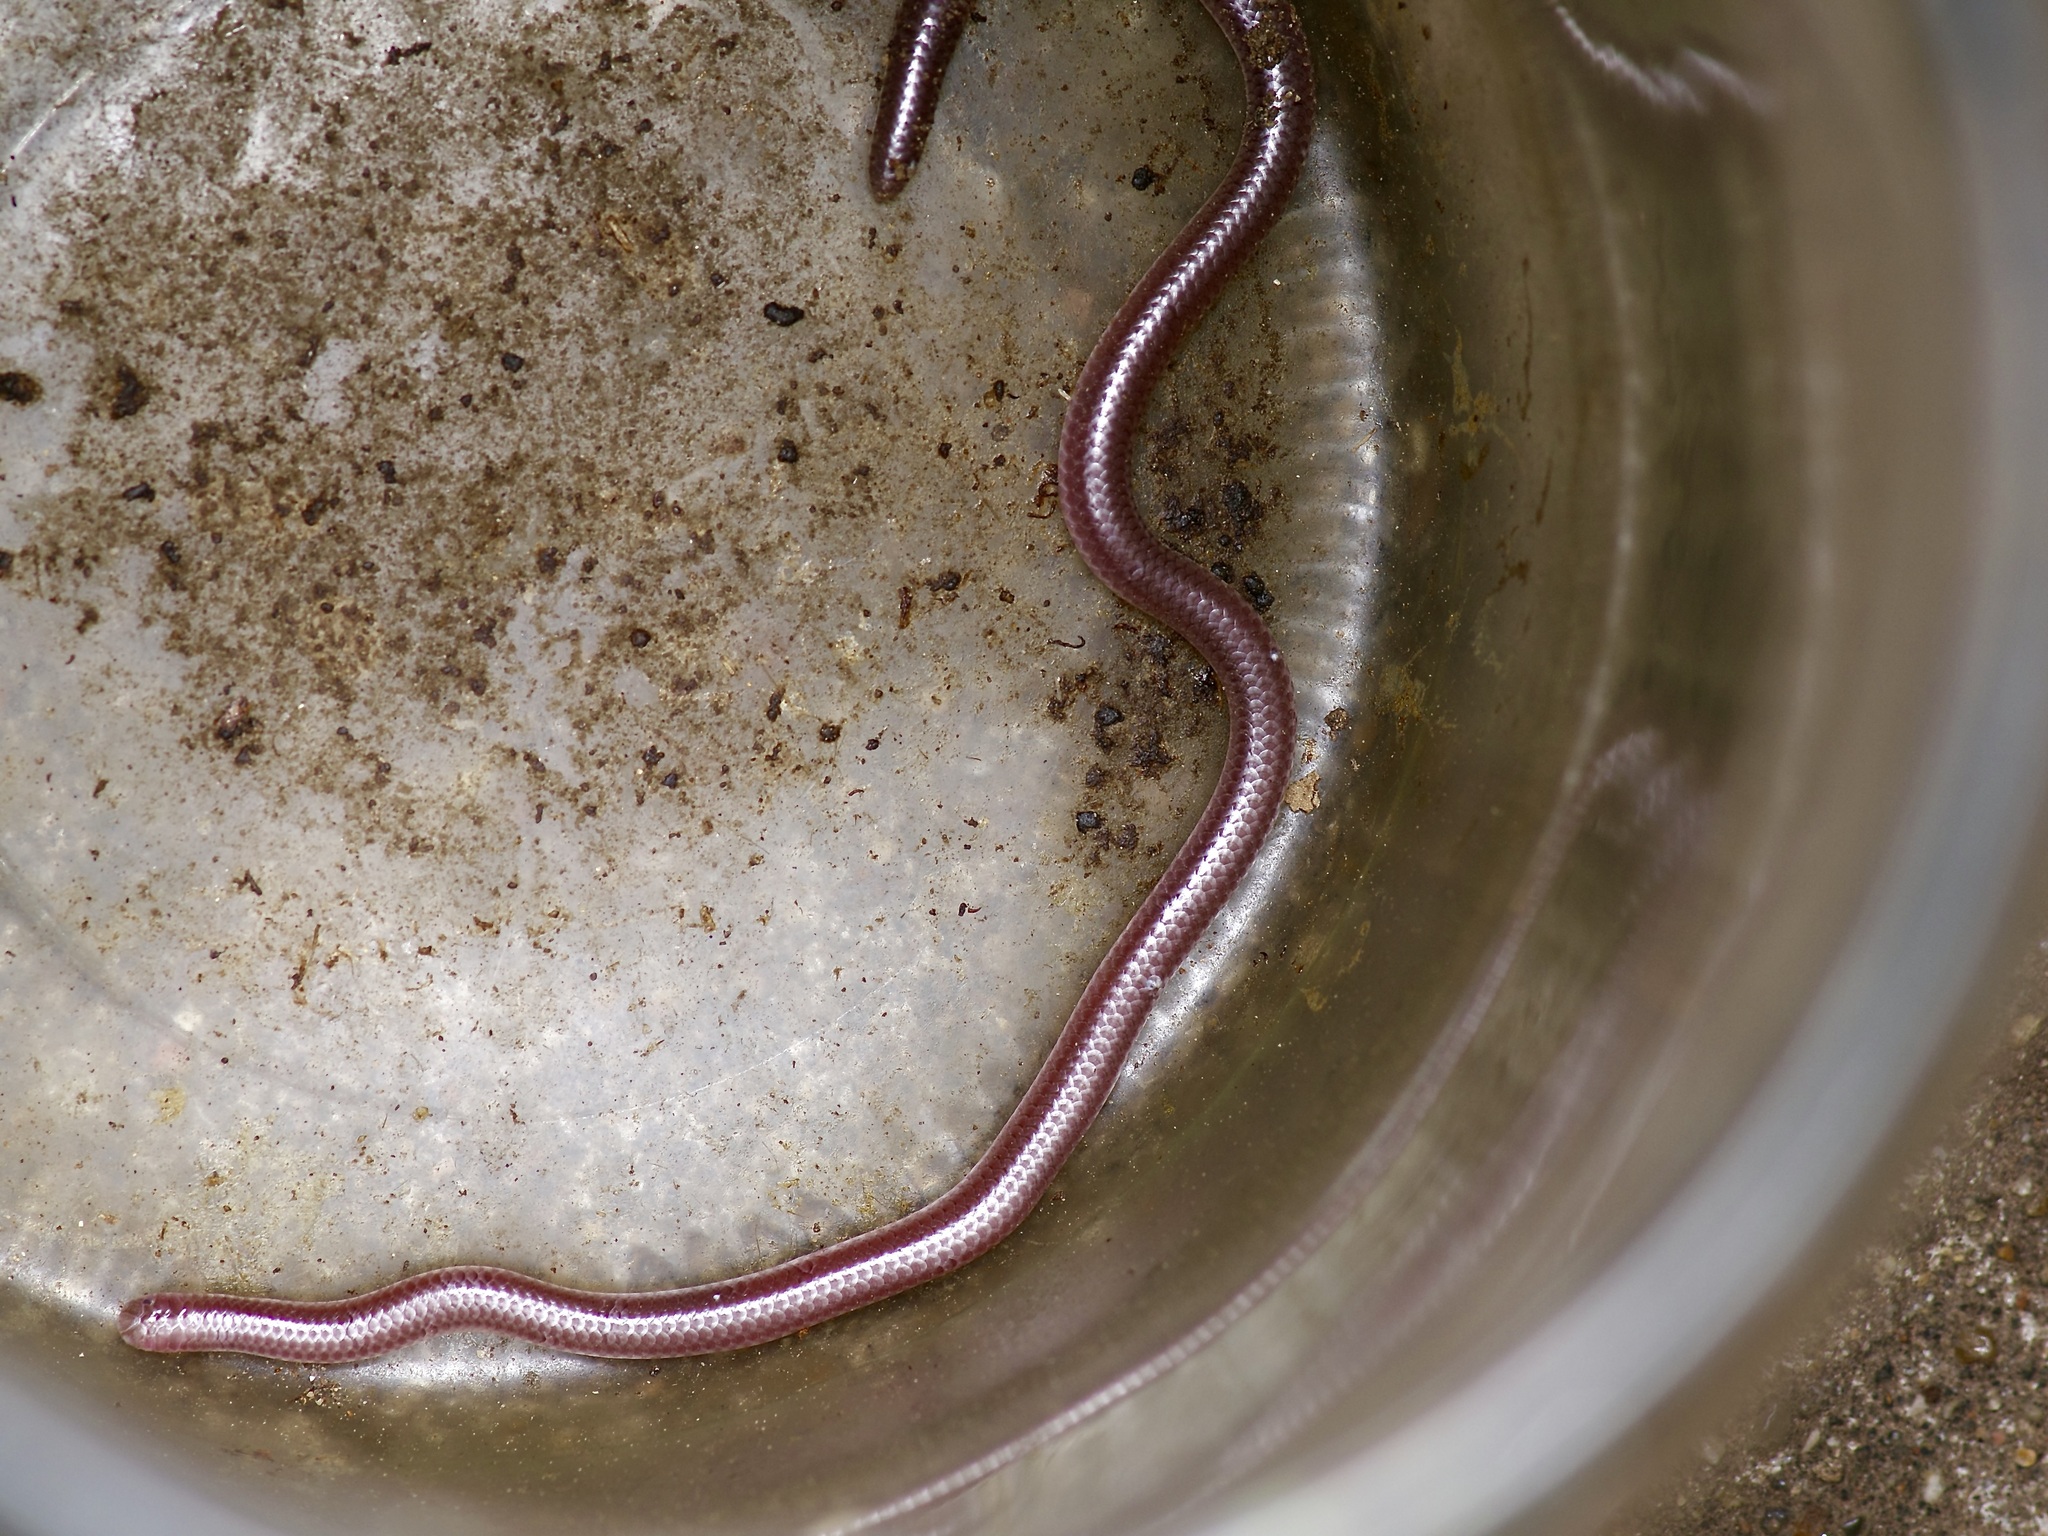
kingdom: Animalia
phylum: Chordata
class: Squamata
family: Leptotyphlopidae
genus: Rena
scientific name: Rena dulcis
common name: Texas blind snake
